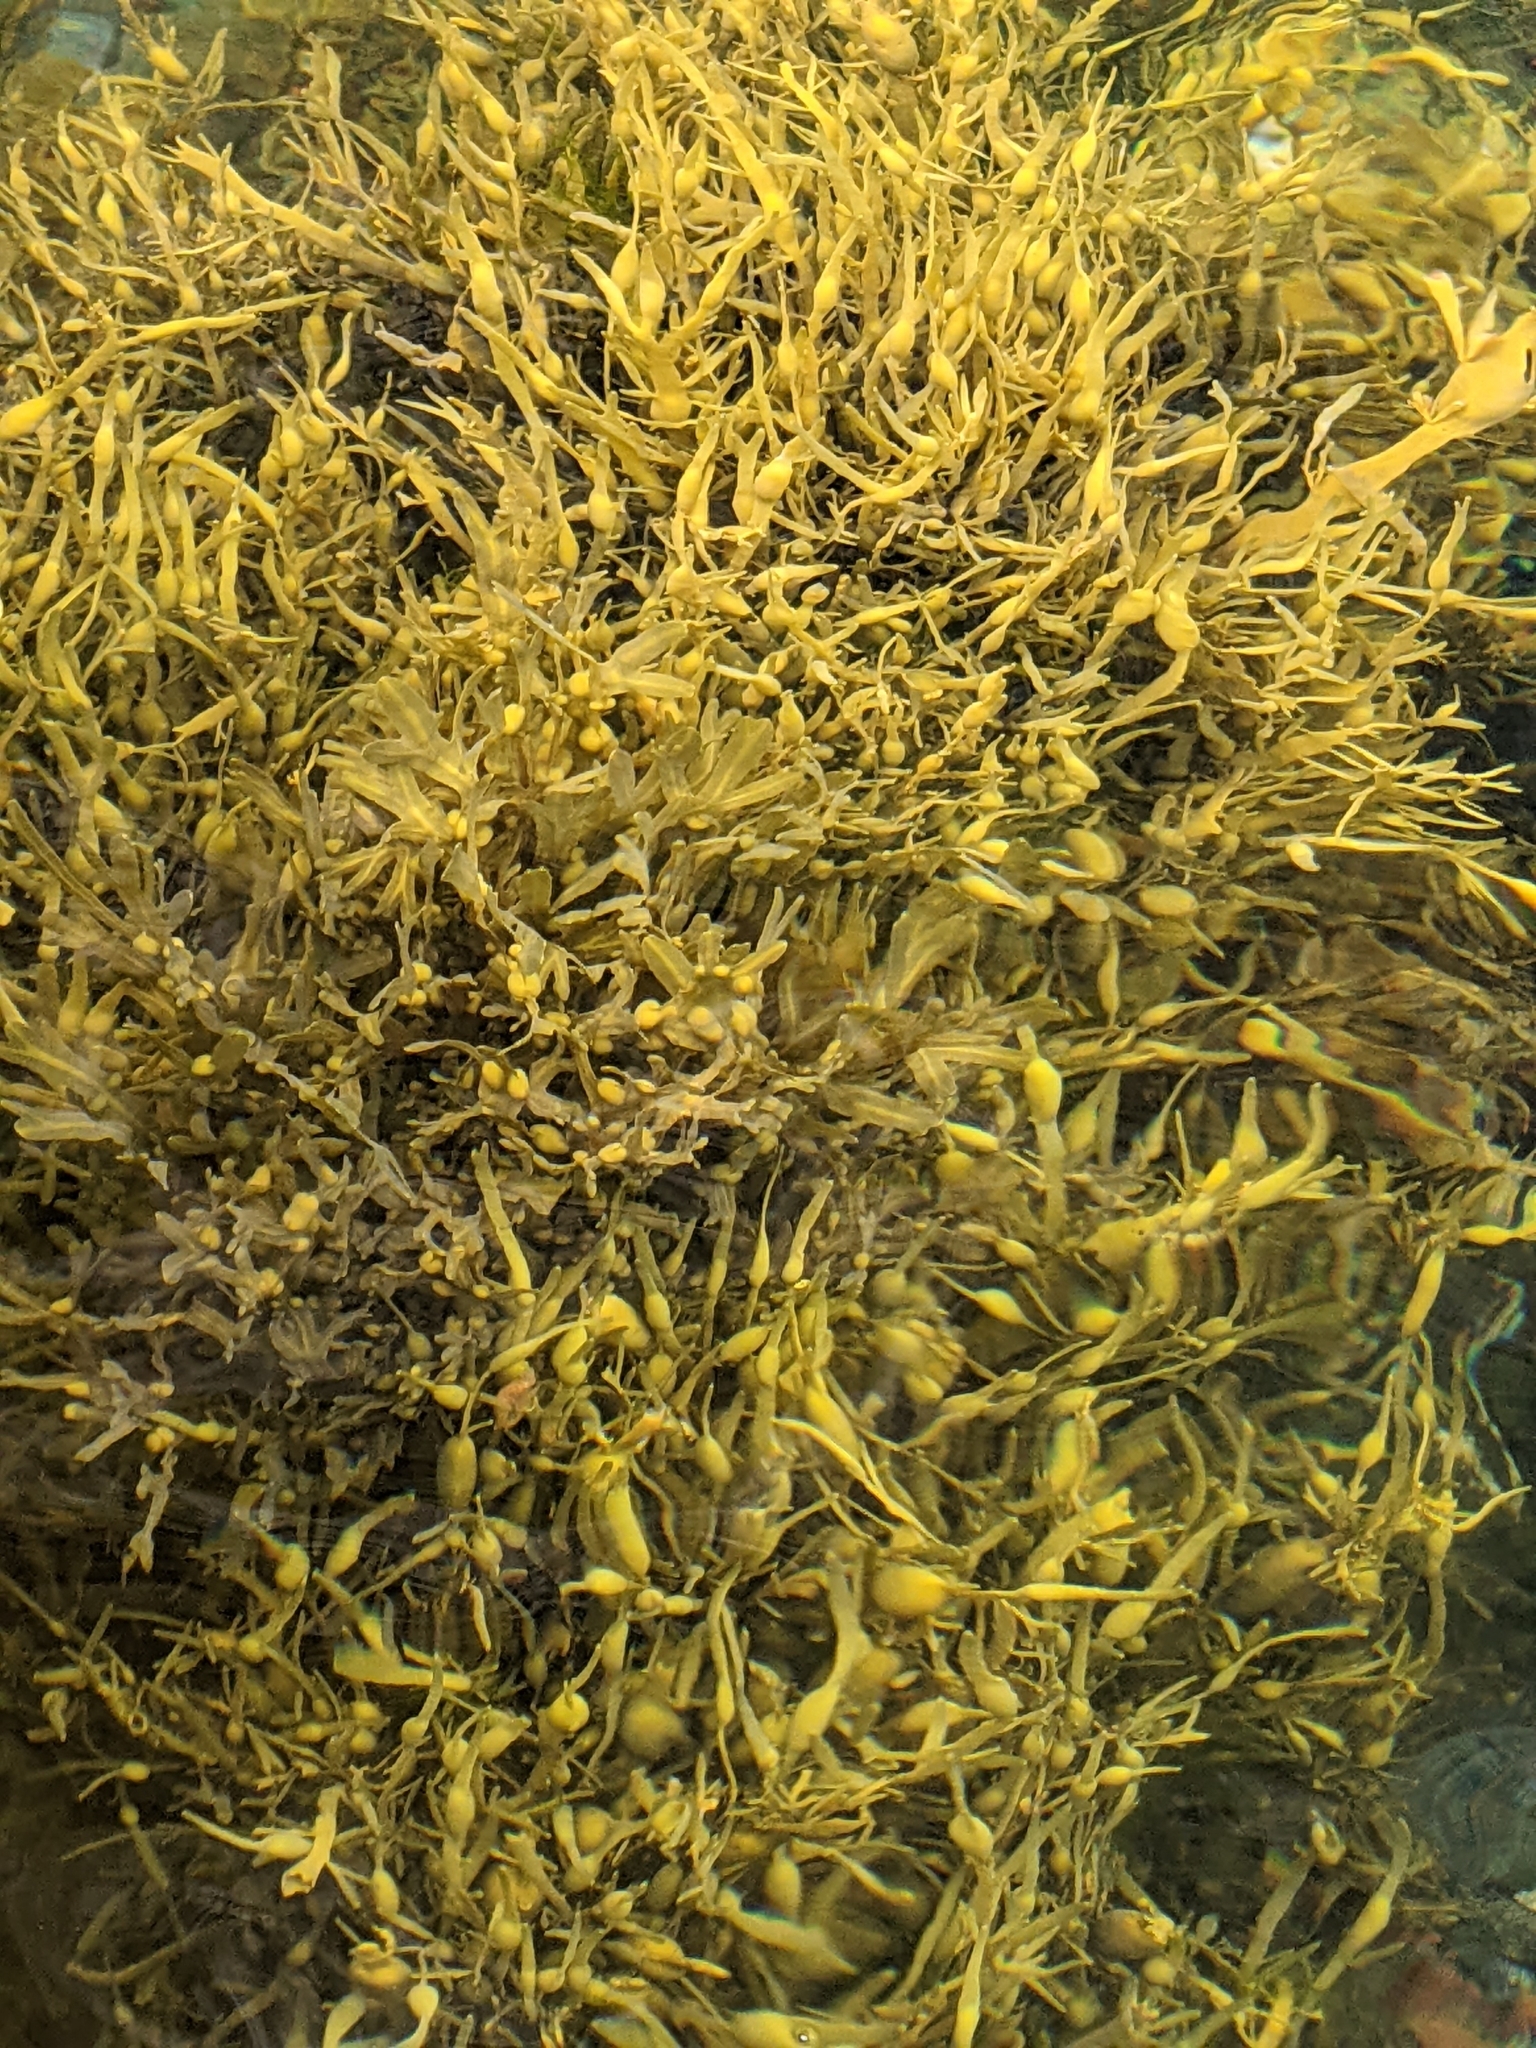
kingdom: Chromista
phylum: Ochrophyta
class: Phaeophyceae
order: Fucales
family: Fucaceae
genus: Ascophyllum
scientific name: Ascophyllum nodosum
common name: Knotted wrack
